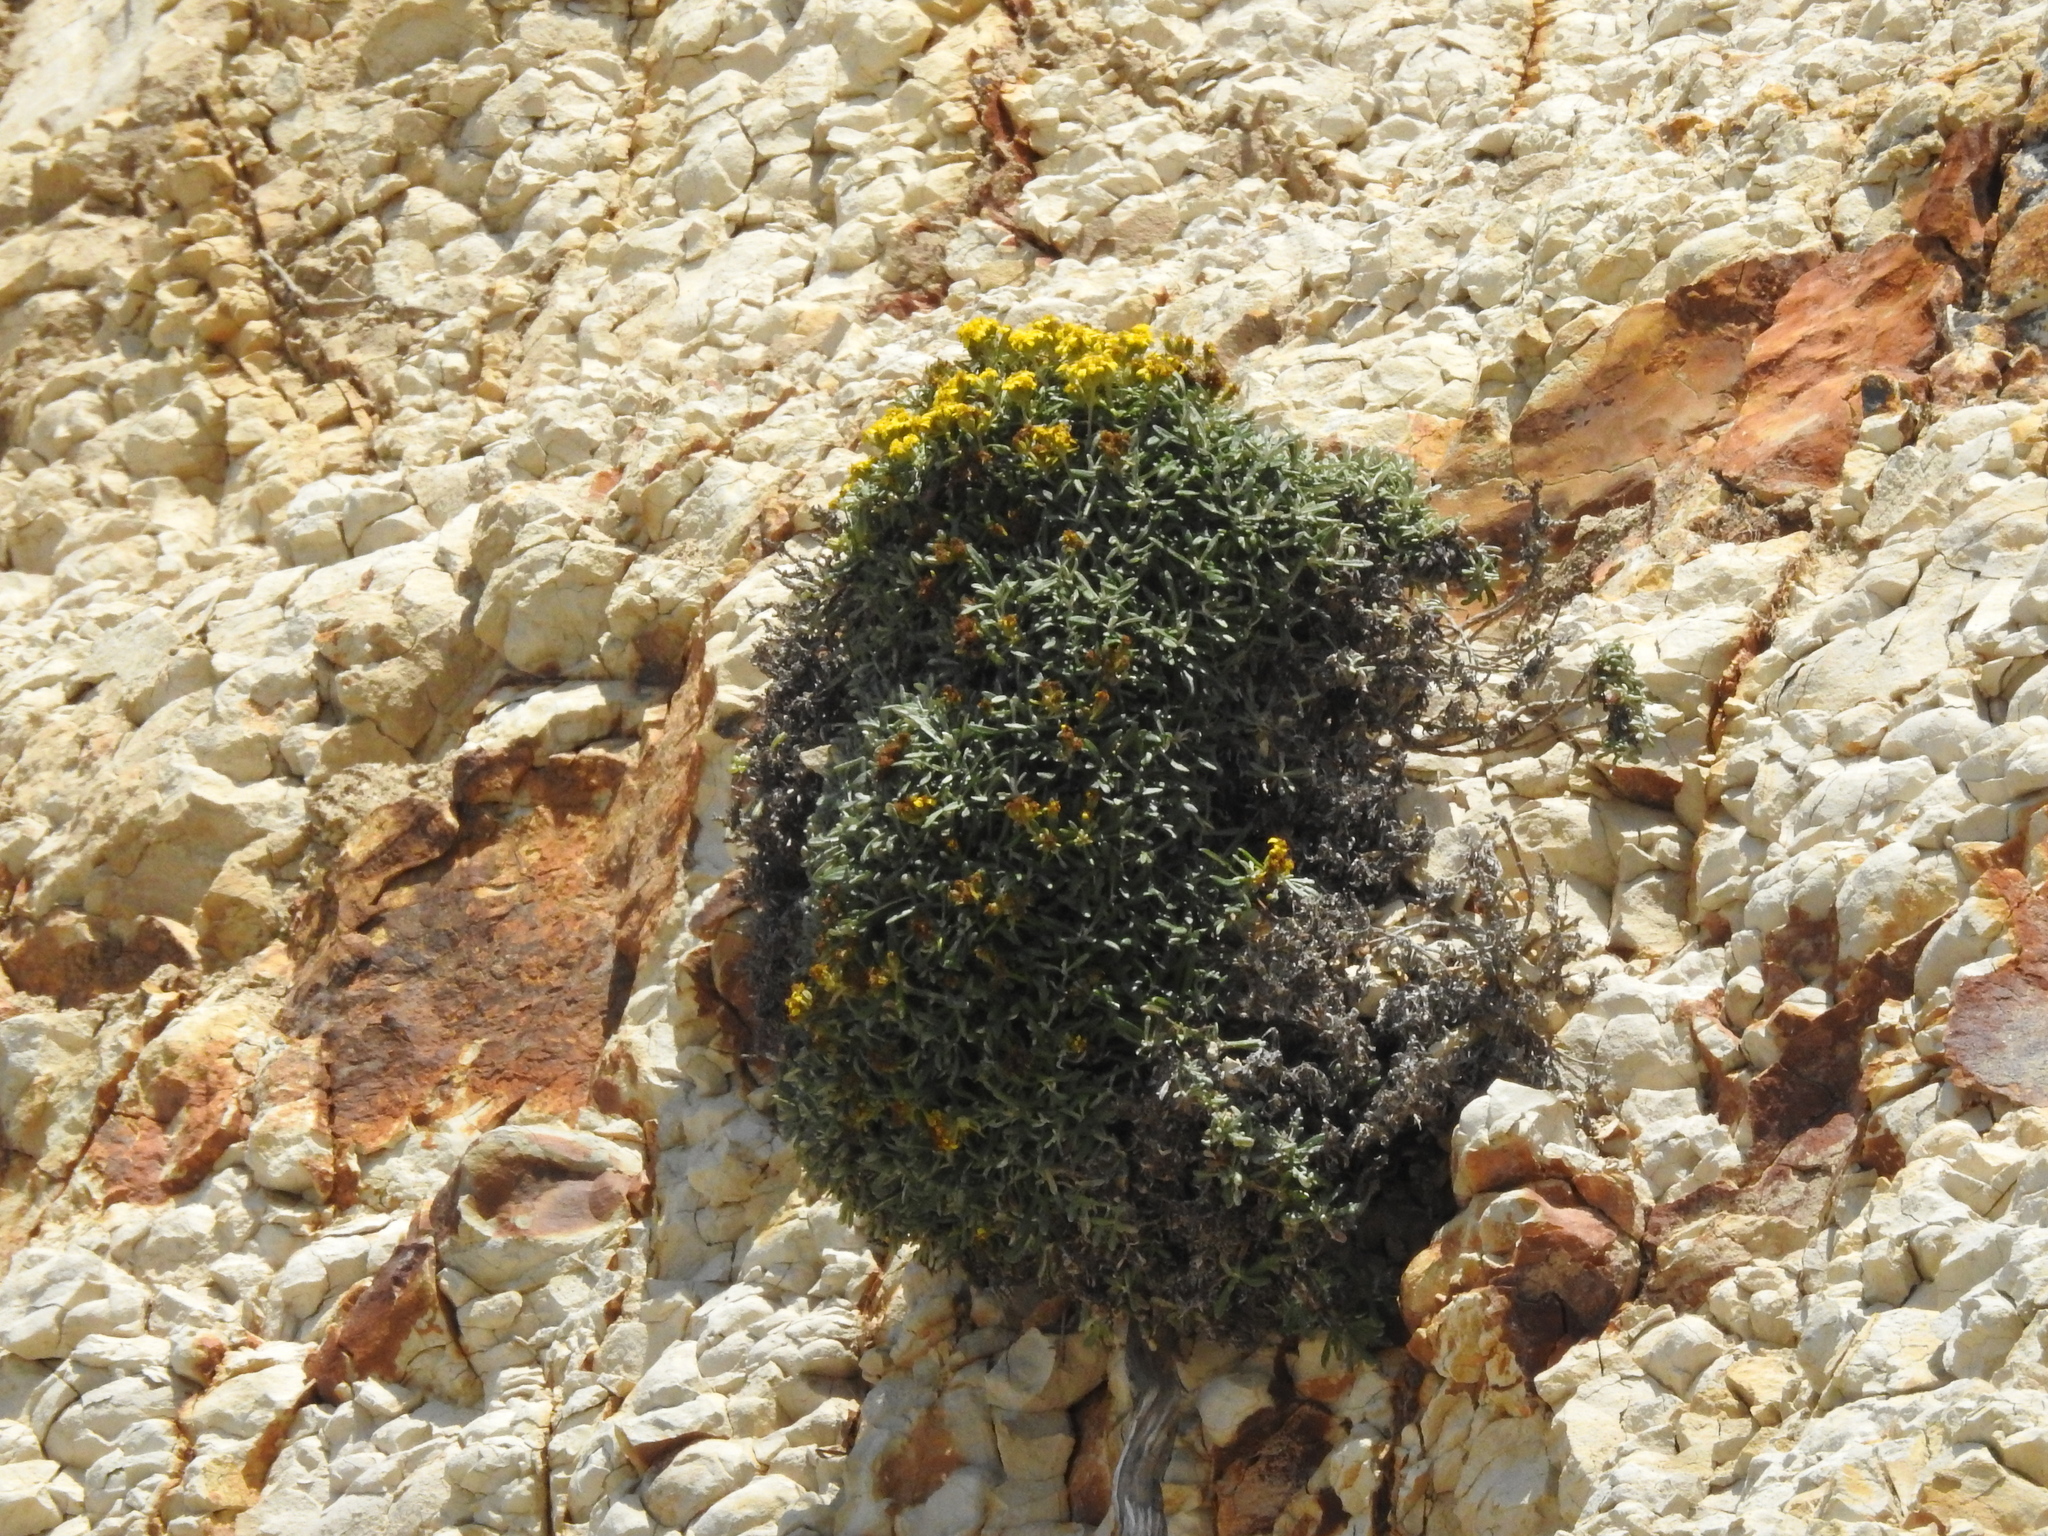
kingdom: Plantae
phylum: Tracheophyta
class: Magnoliopsida
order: Asterales
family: Asteraceae
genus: Eriophyllum
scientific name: Eriophyllum staechadifolium
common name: Lizardtail
